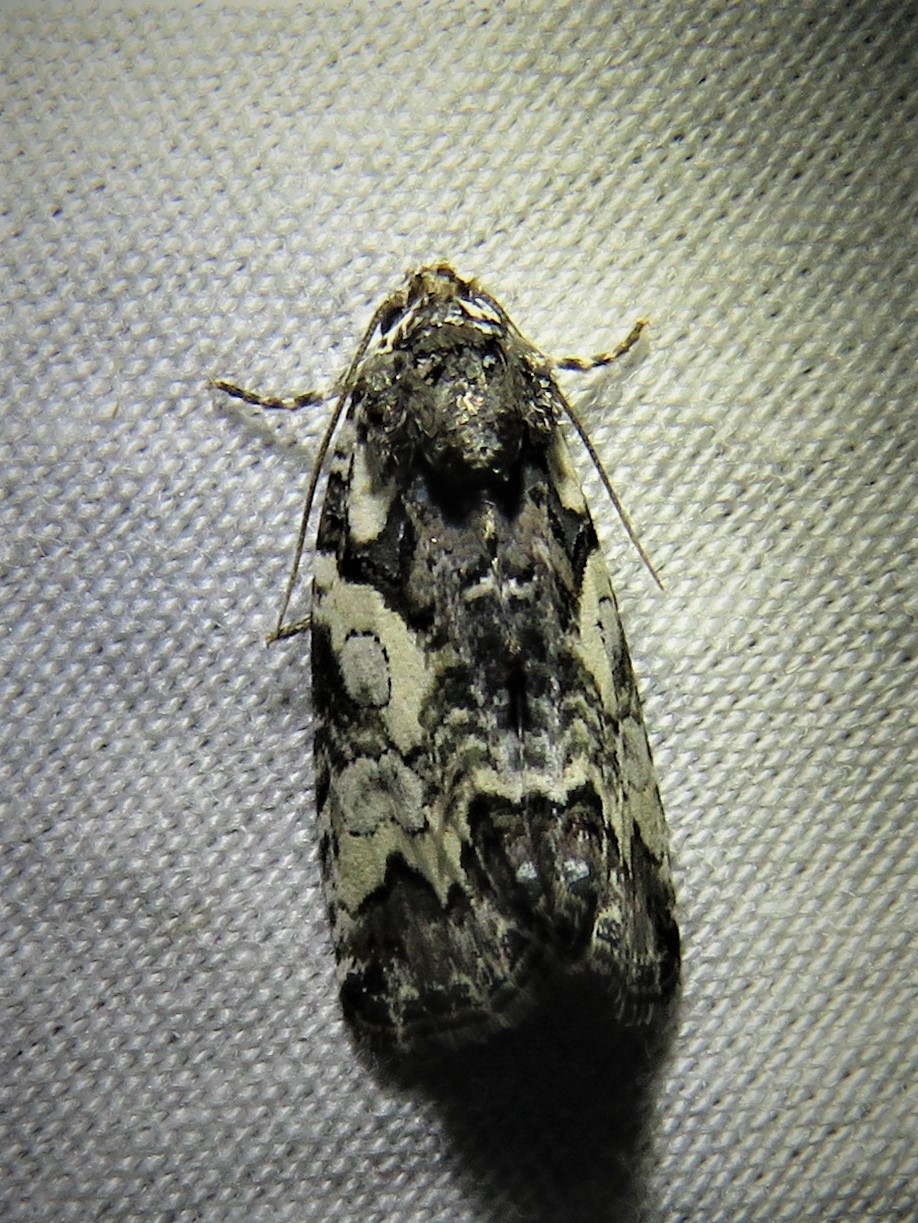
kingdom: Animalia
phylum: Arthropoda
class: Insecta
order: Lepidoptera
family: Noctuidae
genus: Cerma
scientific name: Cerma cerintha
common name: Tufted bird-dropping moth
